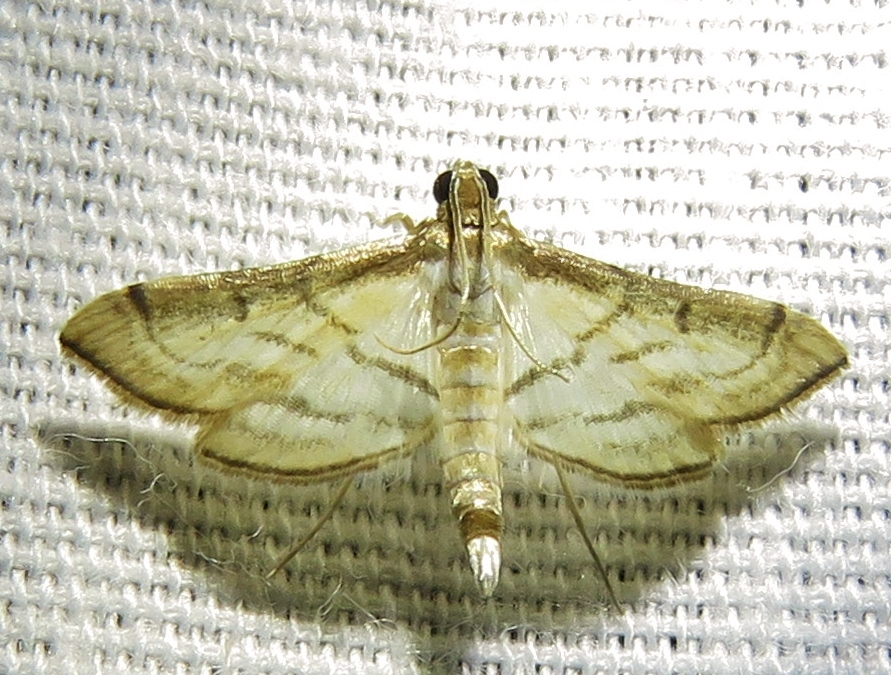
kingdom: Animalia
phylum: Arthropoda
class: Insecta
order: Lepidoptera
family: Crambidae
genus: Cnaphalocrocis
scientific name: Cnaphalocrocis Marasmia trapezalis
